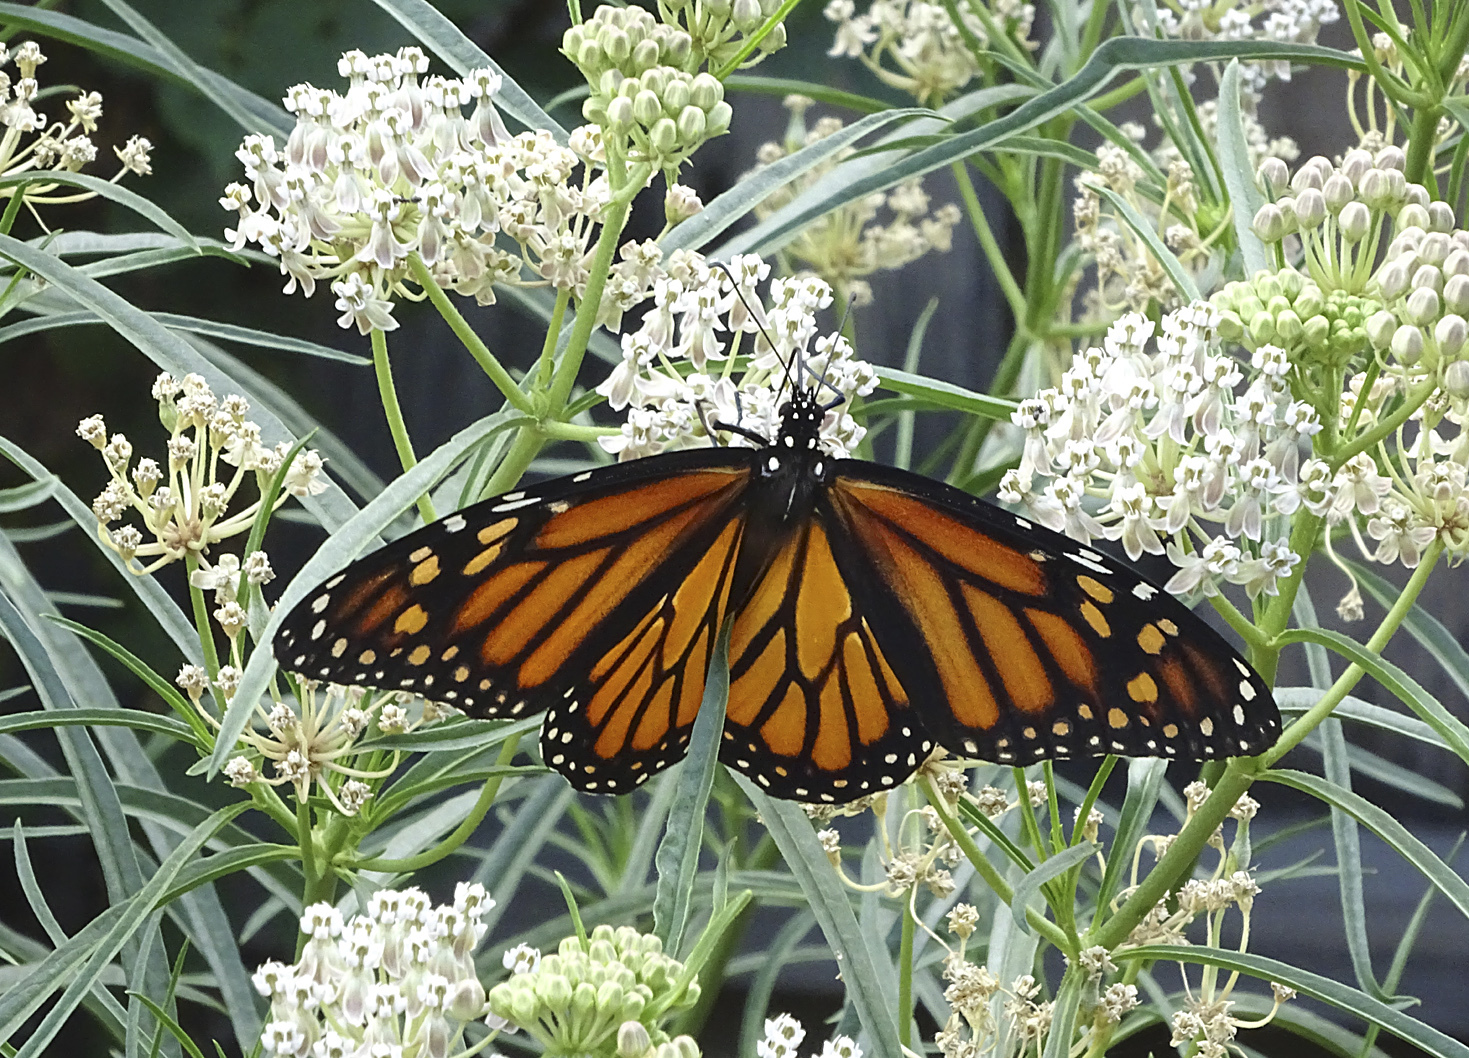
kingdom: Animalia
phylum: Arthropoda
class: Insecta
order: Lepidoptera
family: Nymphalidae
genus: Danaus
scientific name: Danaus plexippus
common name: Monarch
